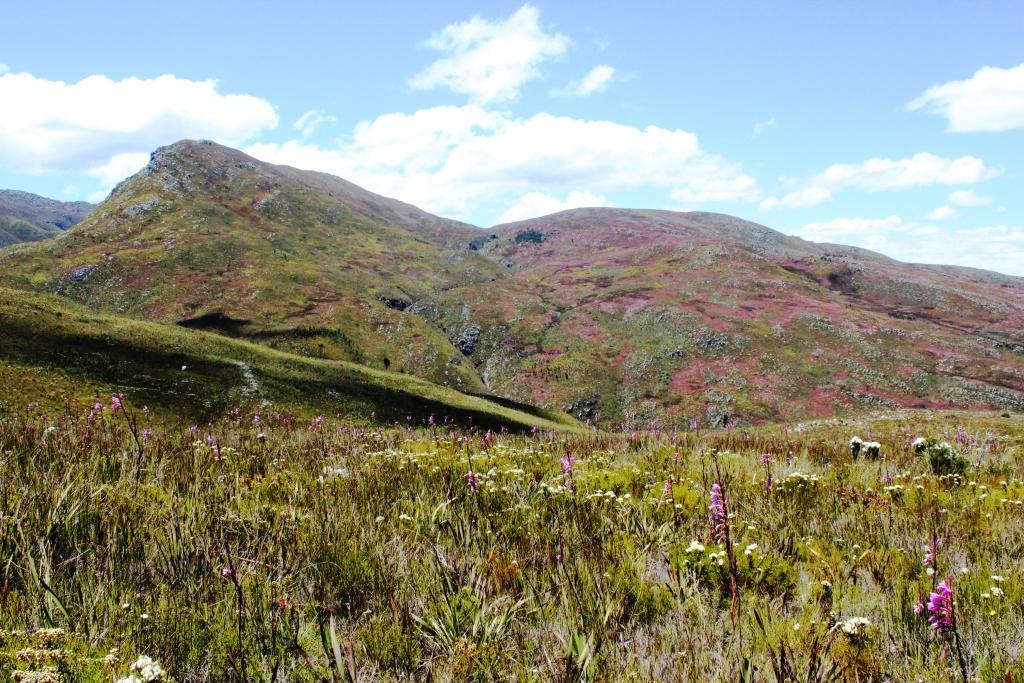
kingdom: Plantae
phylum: Tracheophyta
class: Magnoliopsida
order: Ericales
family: Ericaceae
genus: Erica
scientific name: Erica melanthera
